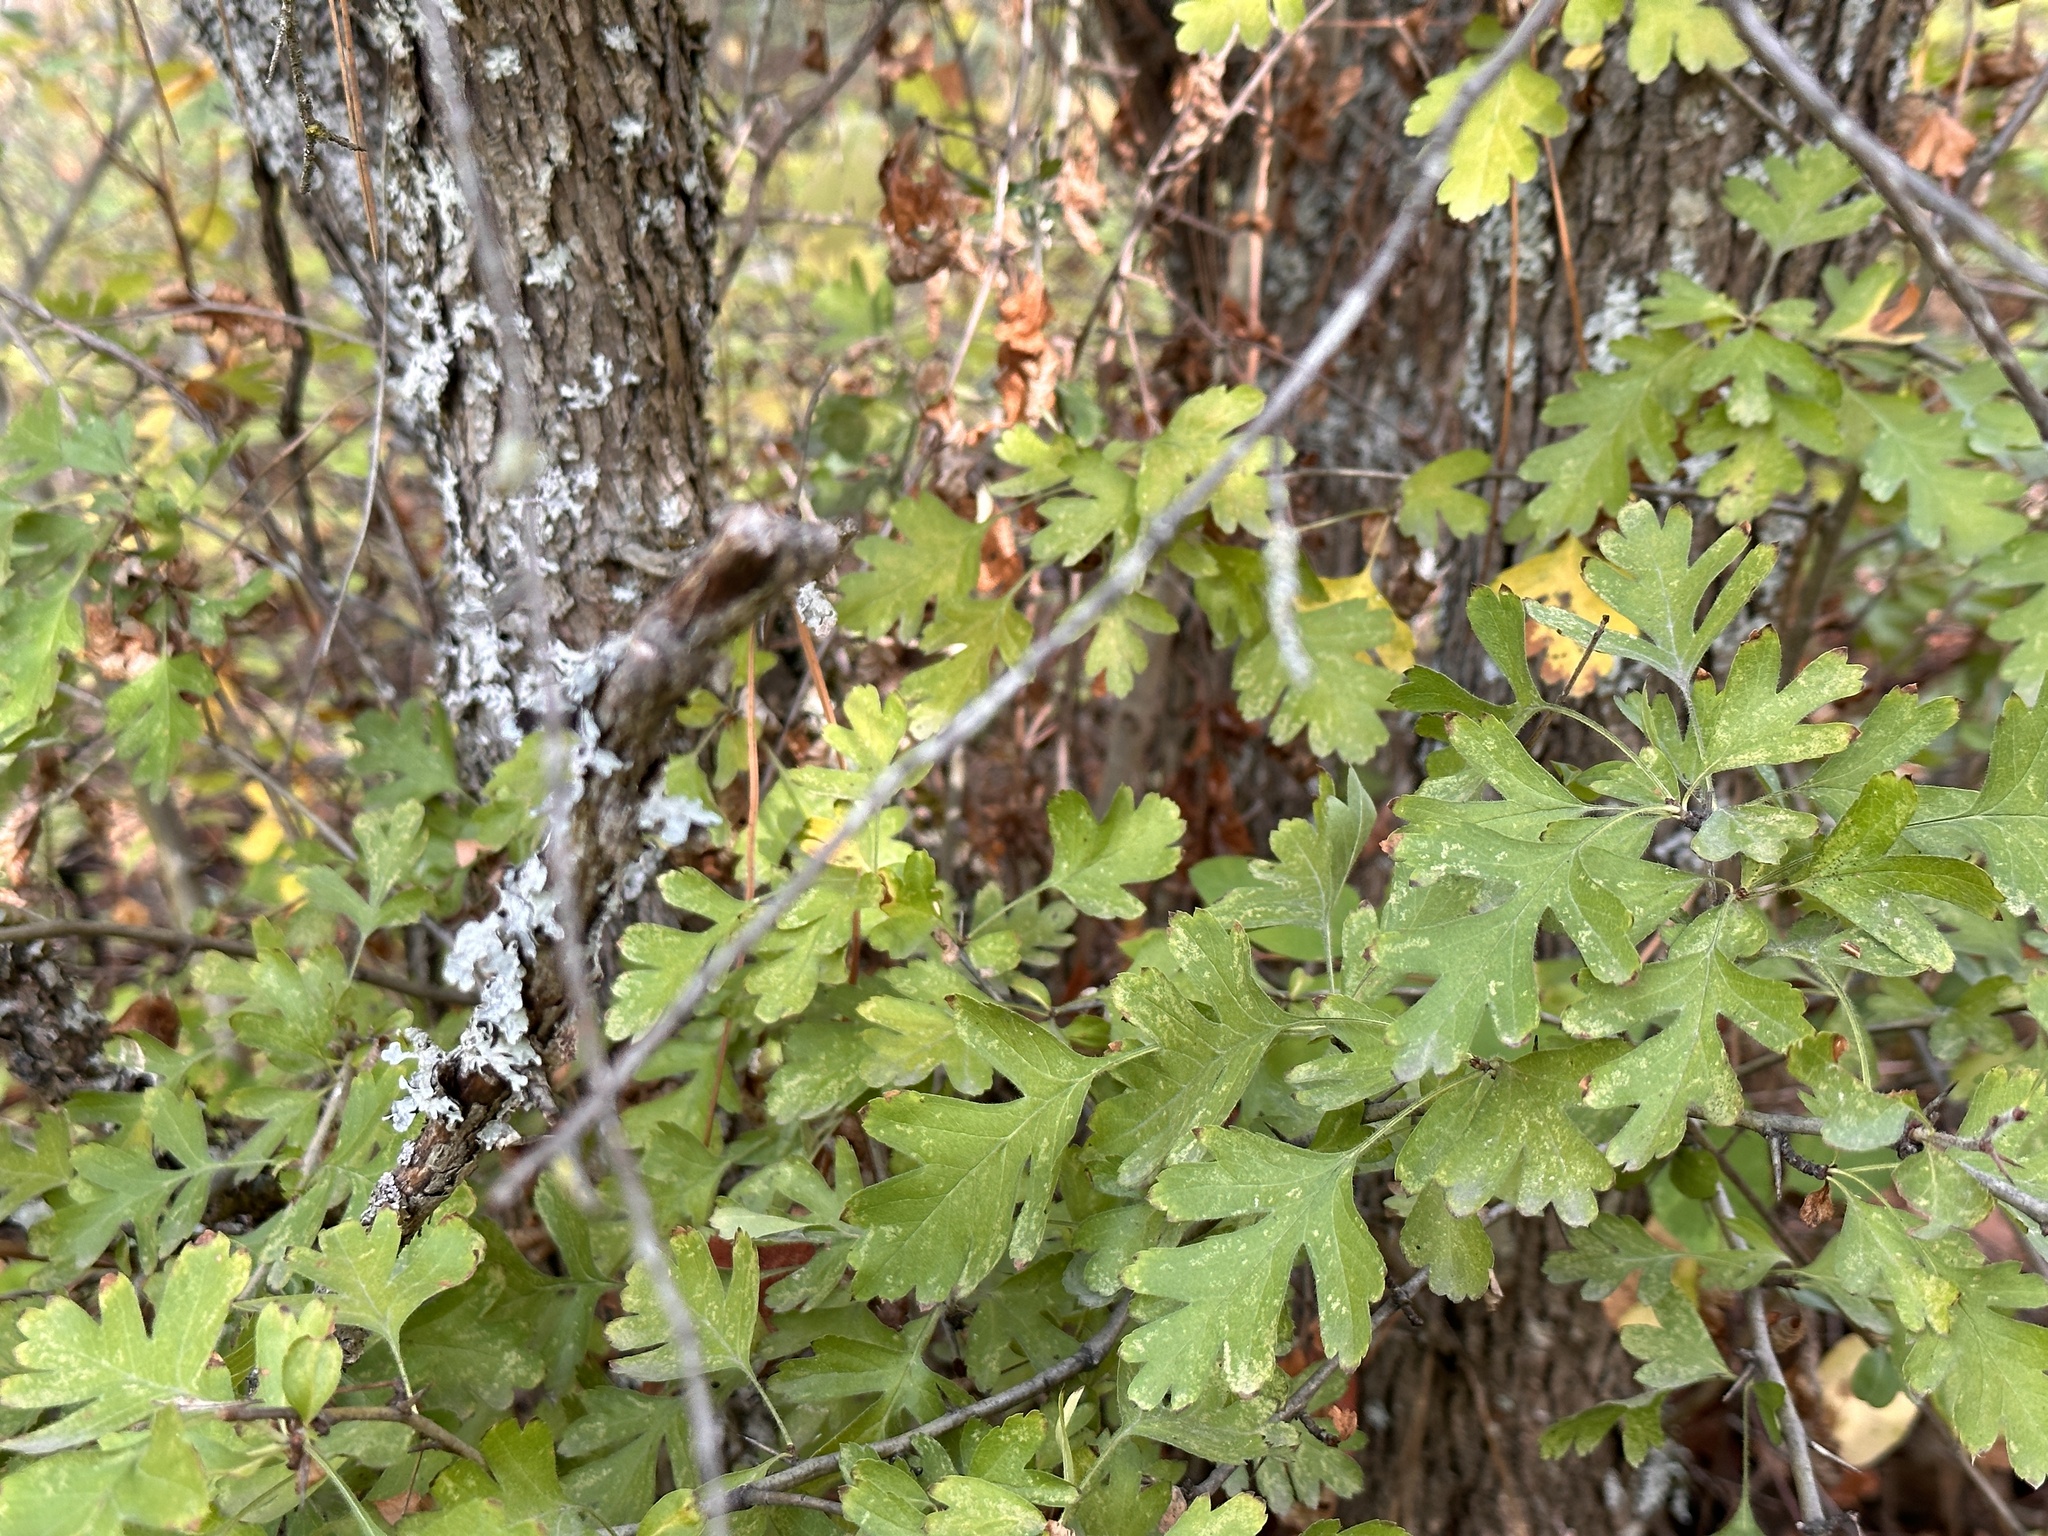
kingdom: Plantae
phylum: Tracheophyta
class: Magnoliopsida
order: Rosales
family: Rosaceae
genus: Crataegus
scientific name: Crataegus monogyna
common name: Hawthorn
